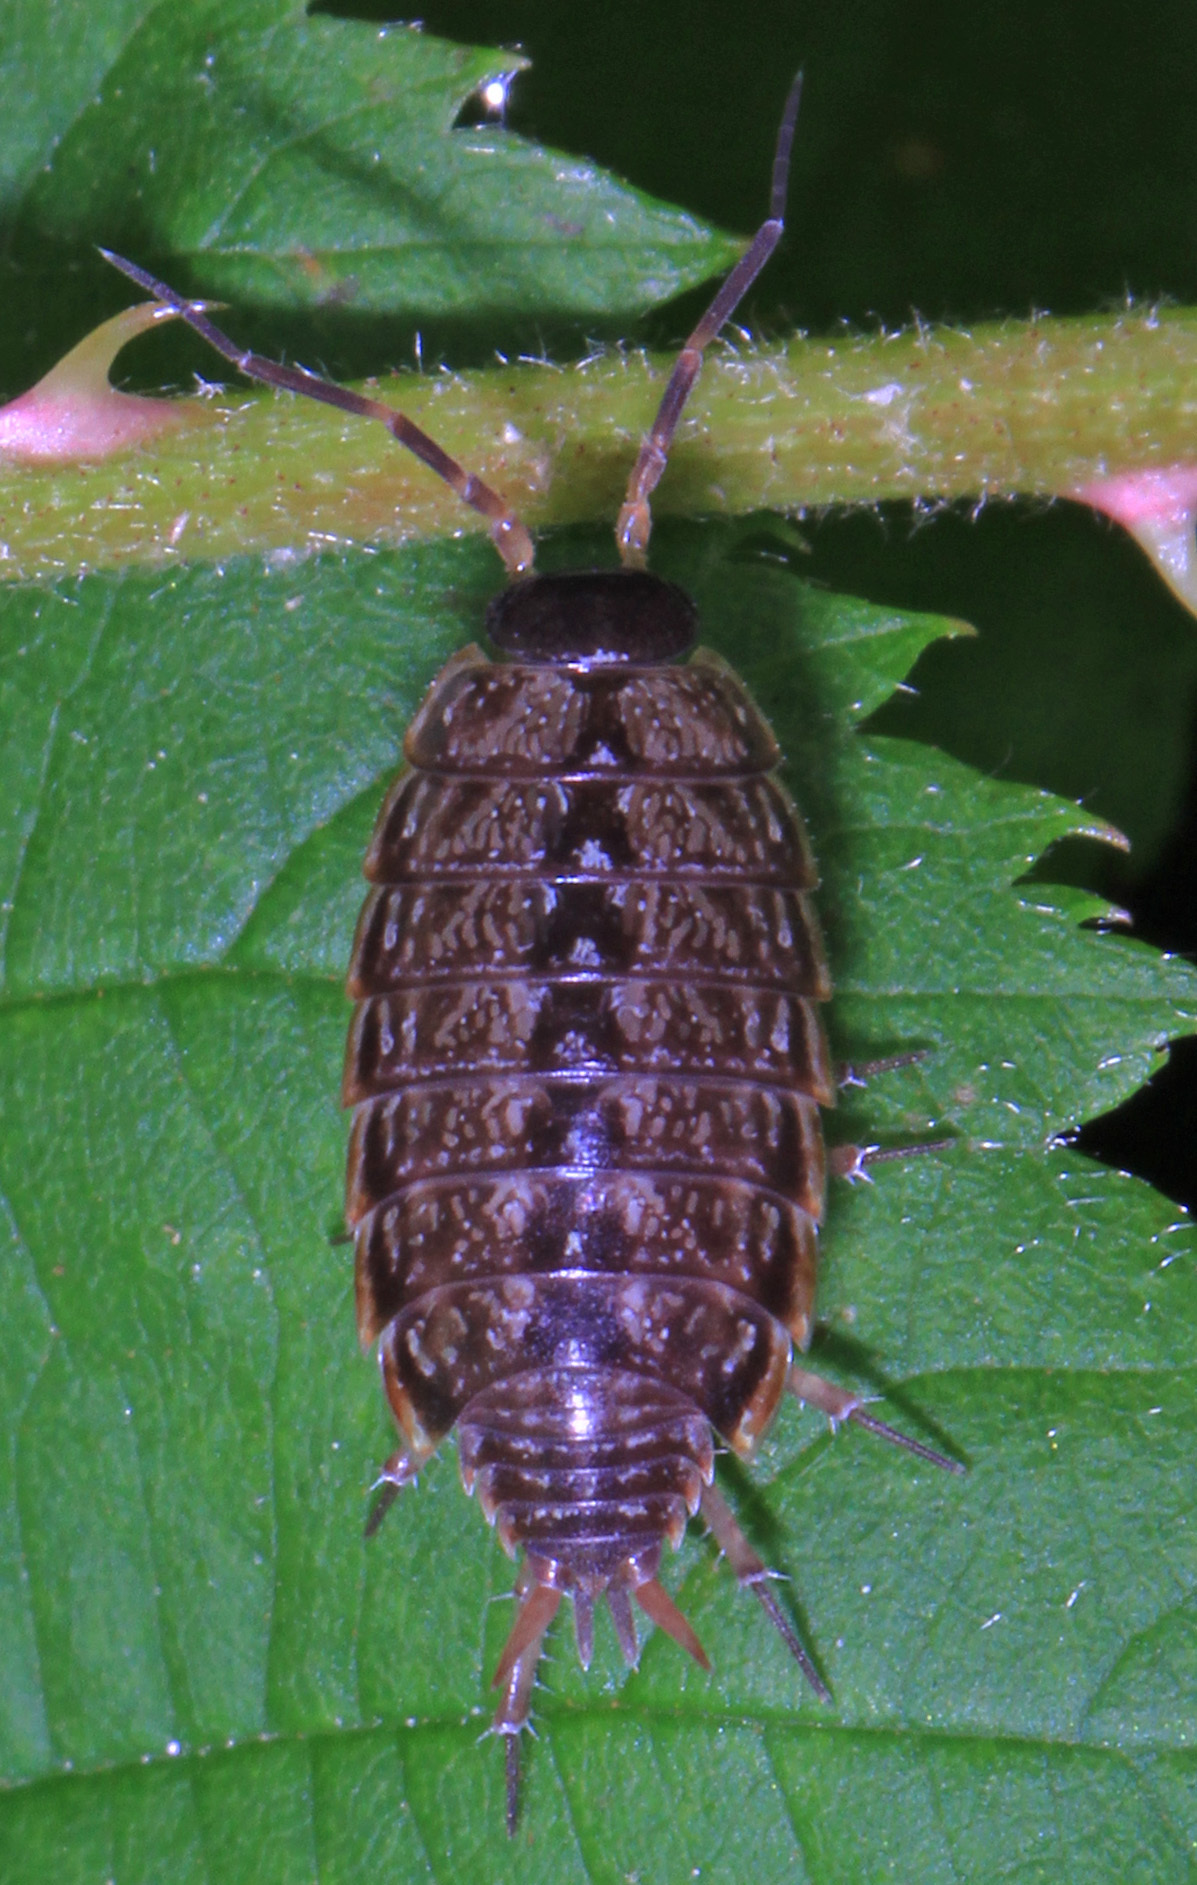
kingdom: Animalia
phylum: Arthropoda
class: Malacostraca
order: Isopoda
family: Philosciidae
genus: Philoscia
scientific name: Philoscia muscorum
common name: Common striped woodlouse
